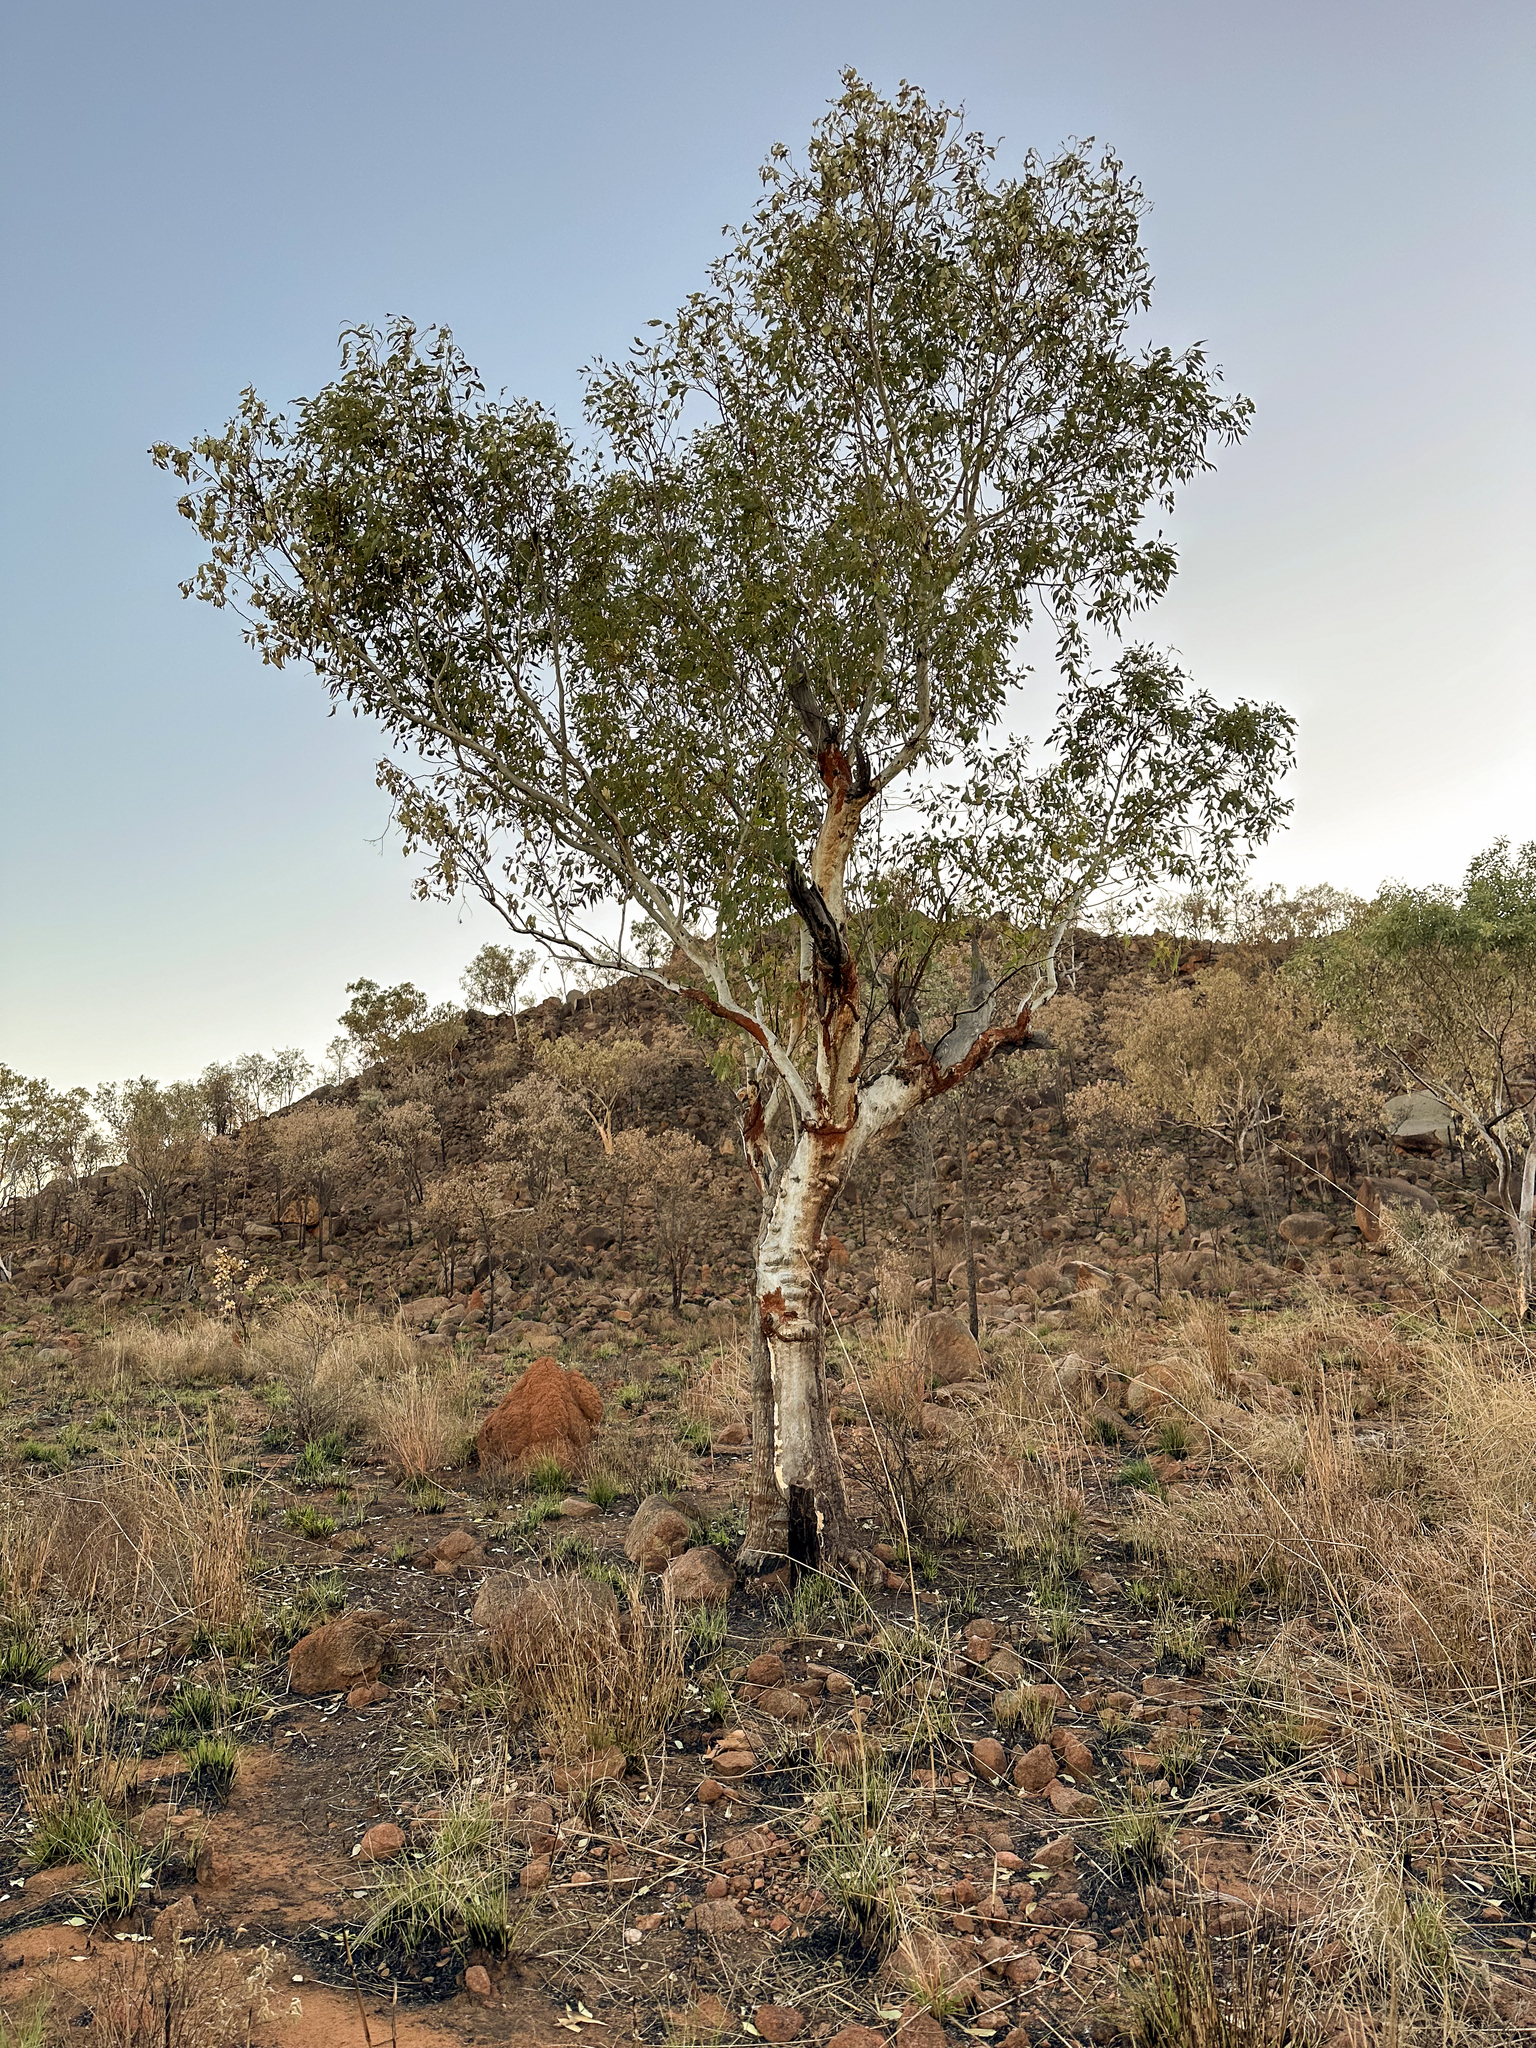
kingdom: Plantae
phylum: Tracheophyta
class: Magnoliopsida
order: Myrtales
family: Myrtaceae
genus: Eucalyptus
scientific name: Eucalyptus brevifolia
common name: Northern-white-gum
